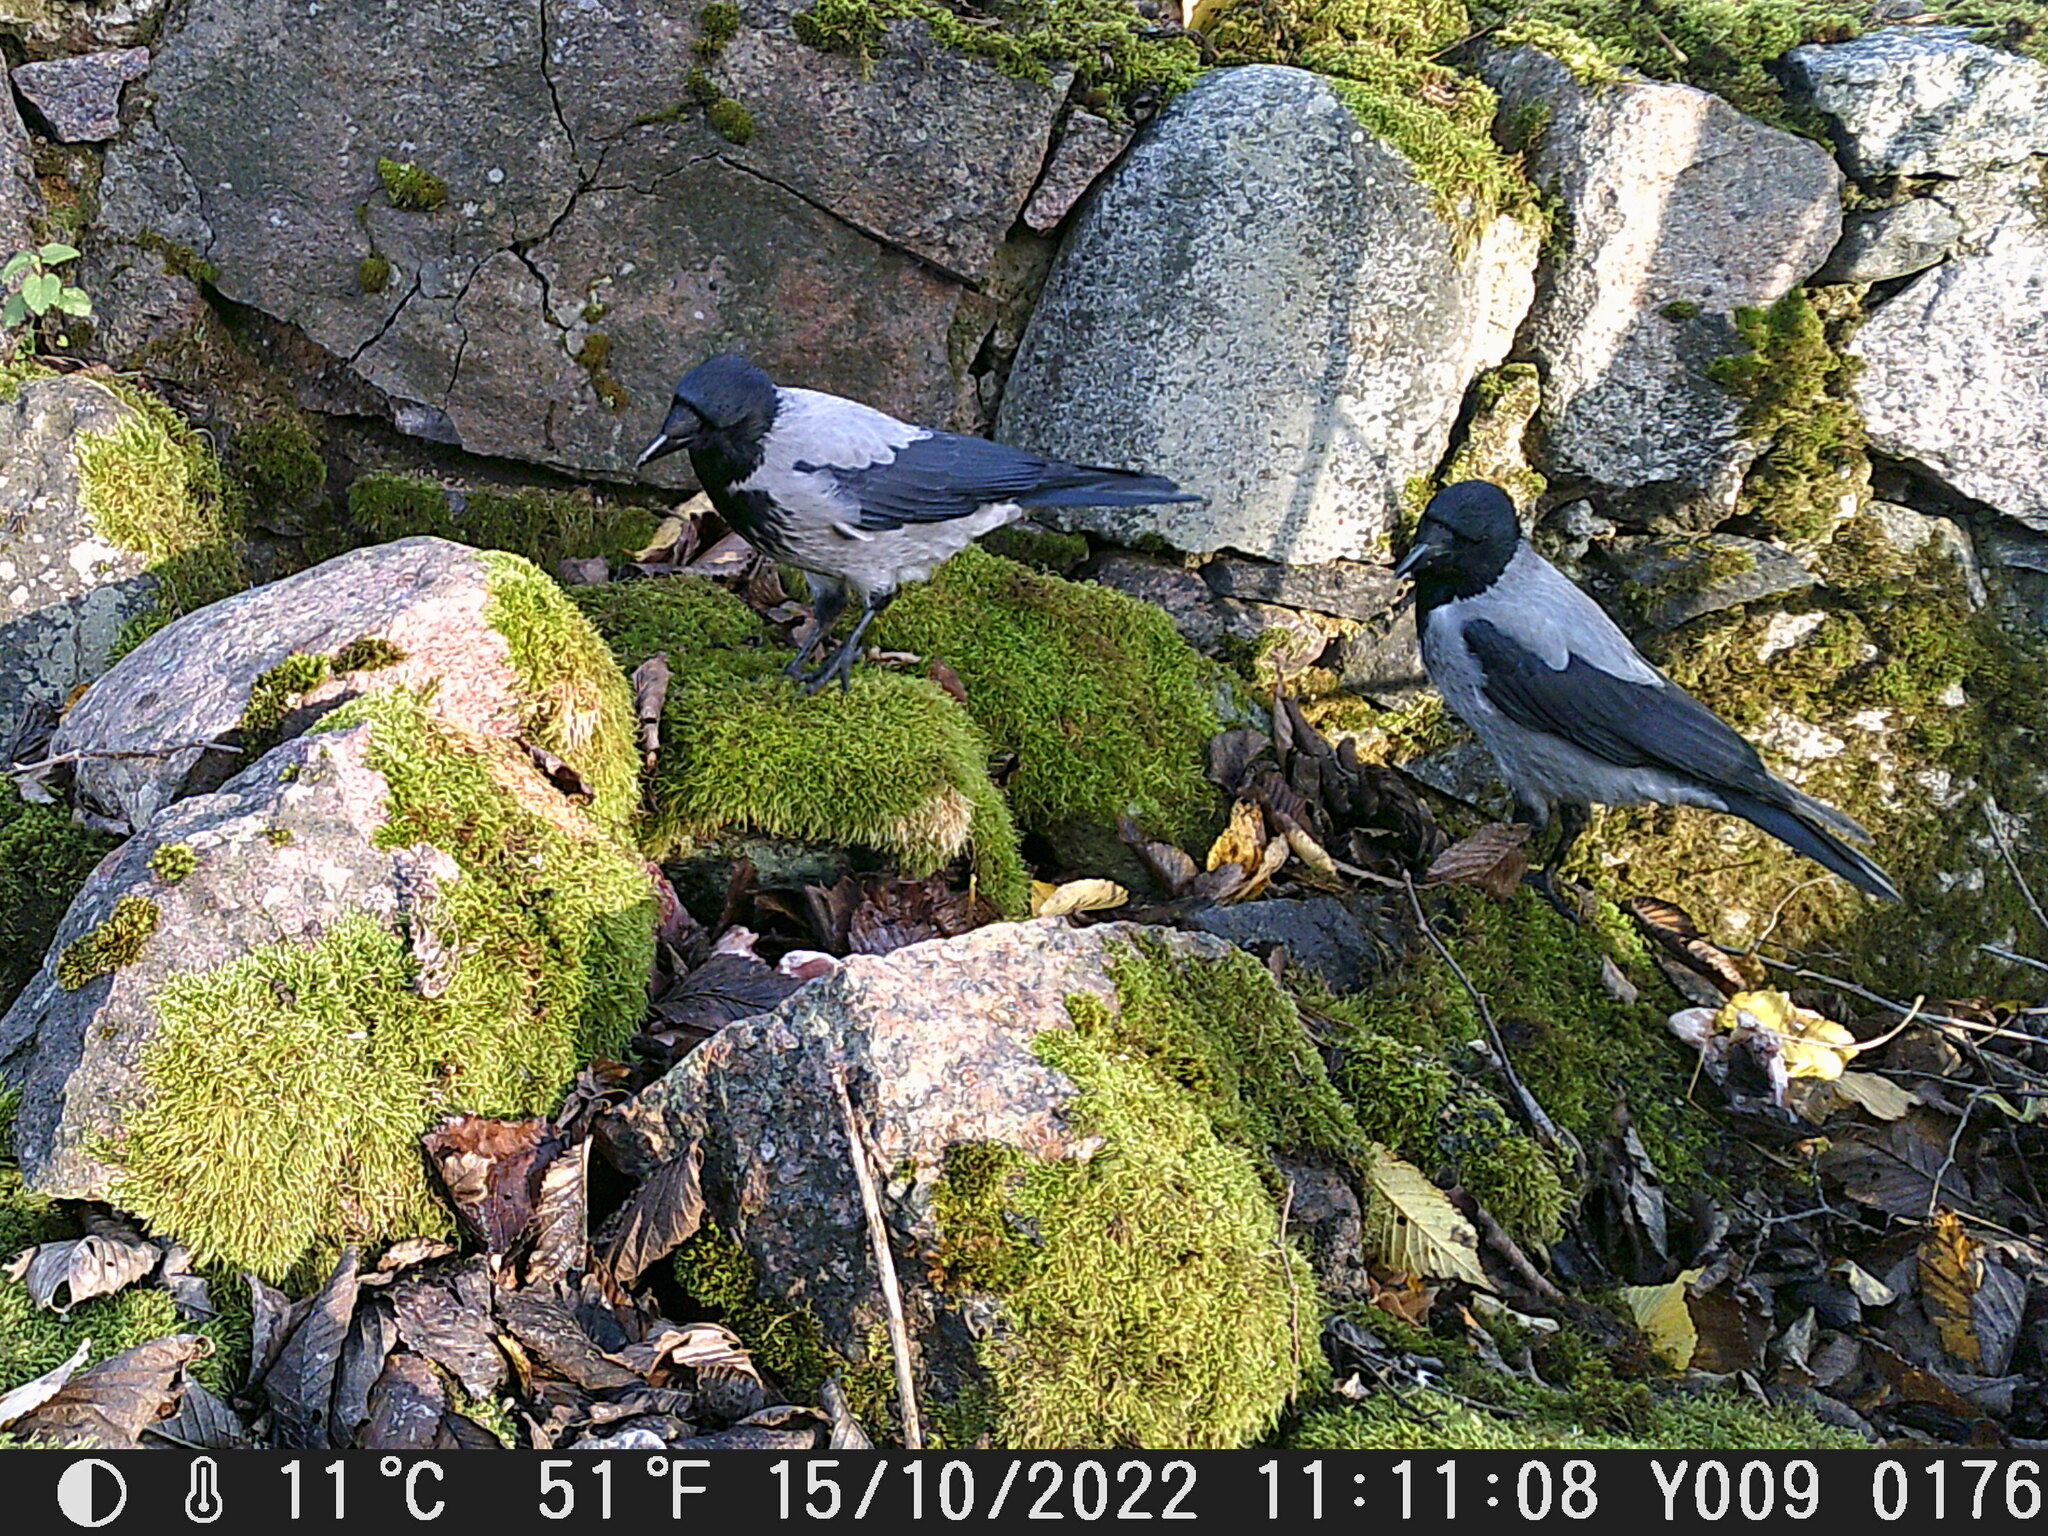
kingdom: Animalia
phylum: Chordata
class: Aves
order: Passeriformes
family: Corvidae
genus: Corvus
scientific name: Corvus cornix
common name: Hooded crow
